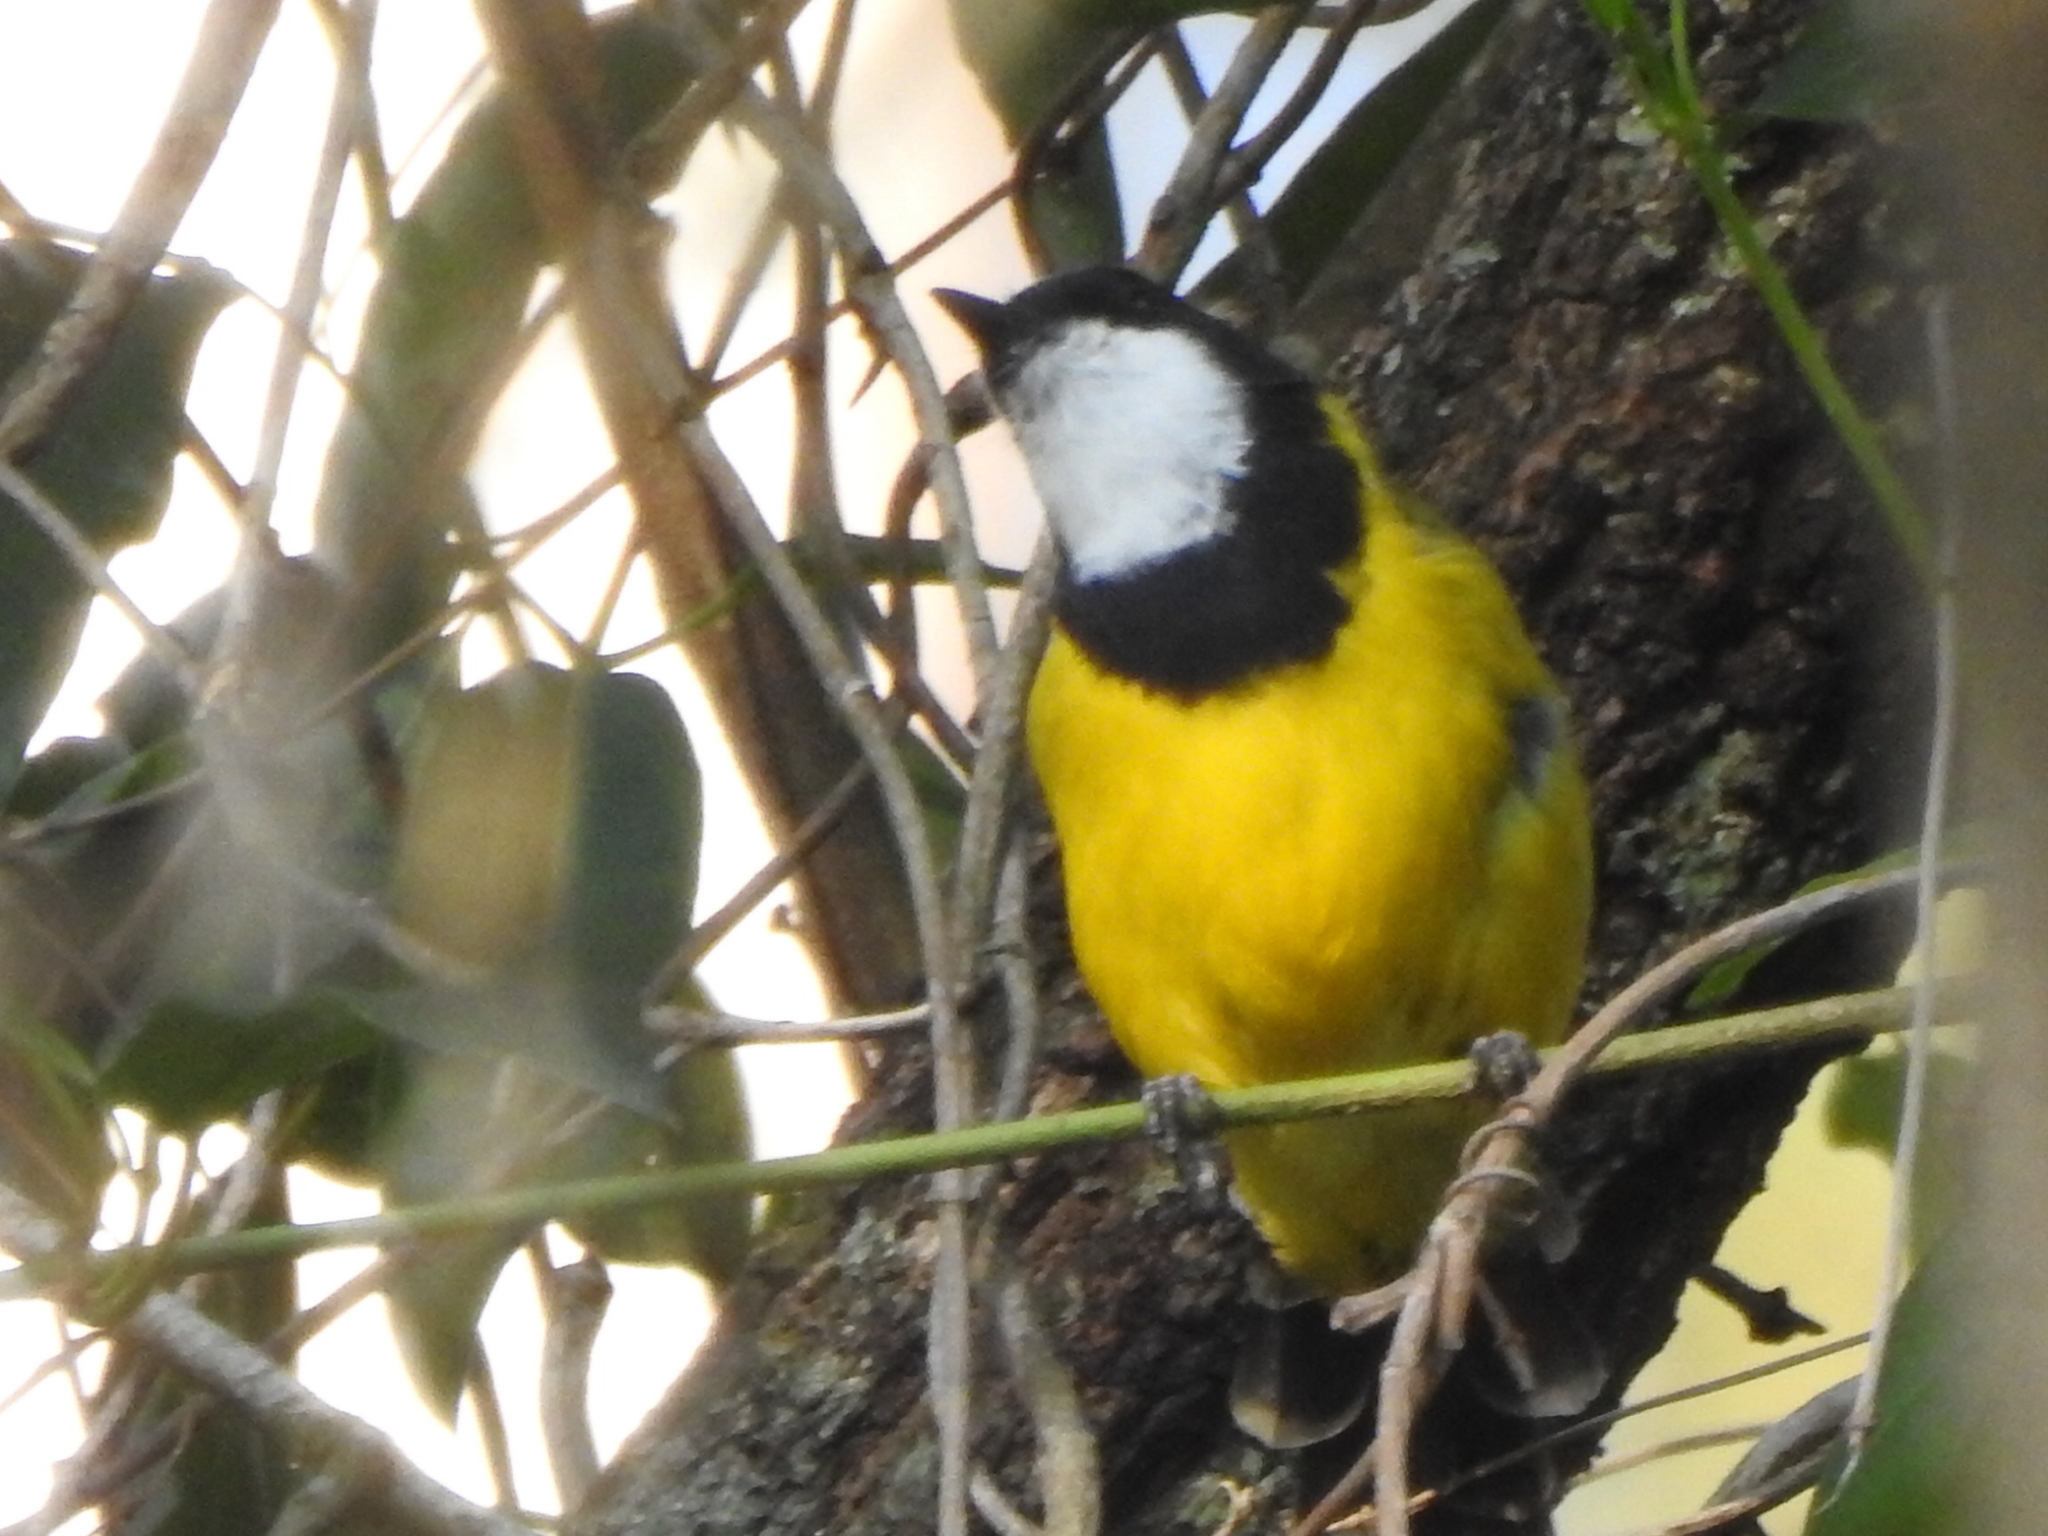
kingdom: Animalia
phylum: Chordata
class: Aves
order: Passeriformes
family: Pachycephalidae
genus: Pachycephala
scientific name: Pachycephala pectoralis
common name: Australian golden whistler
